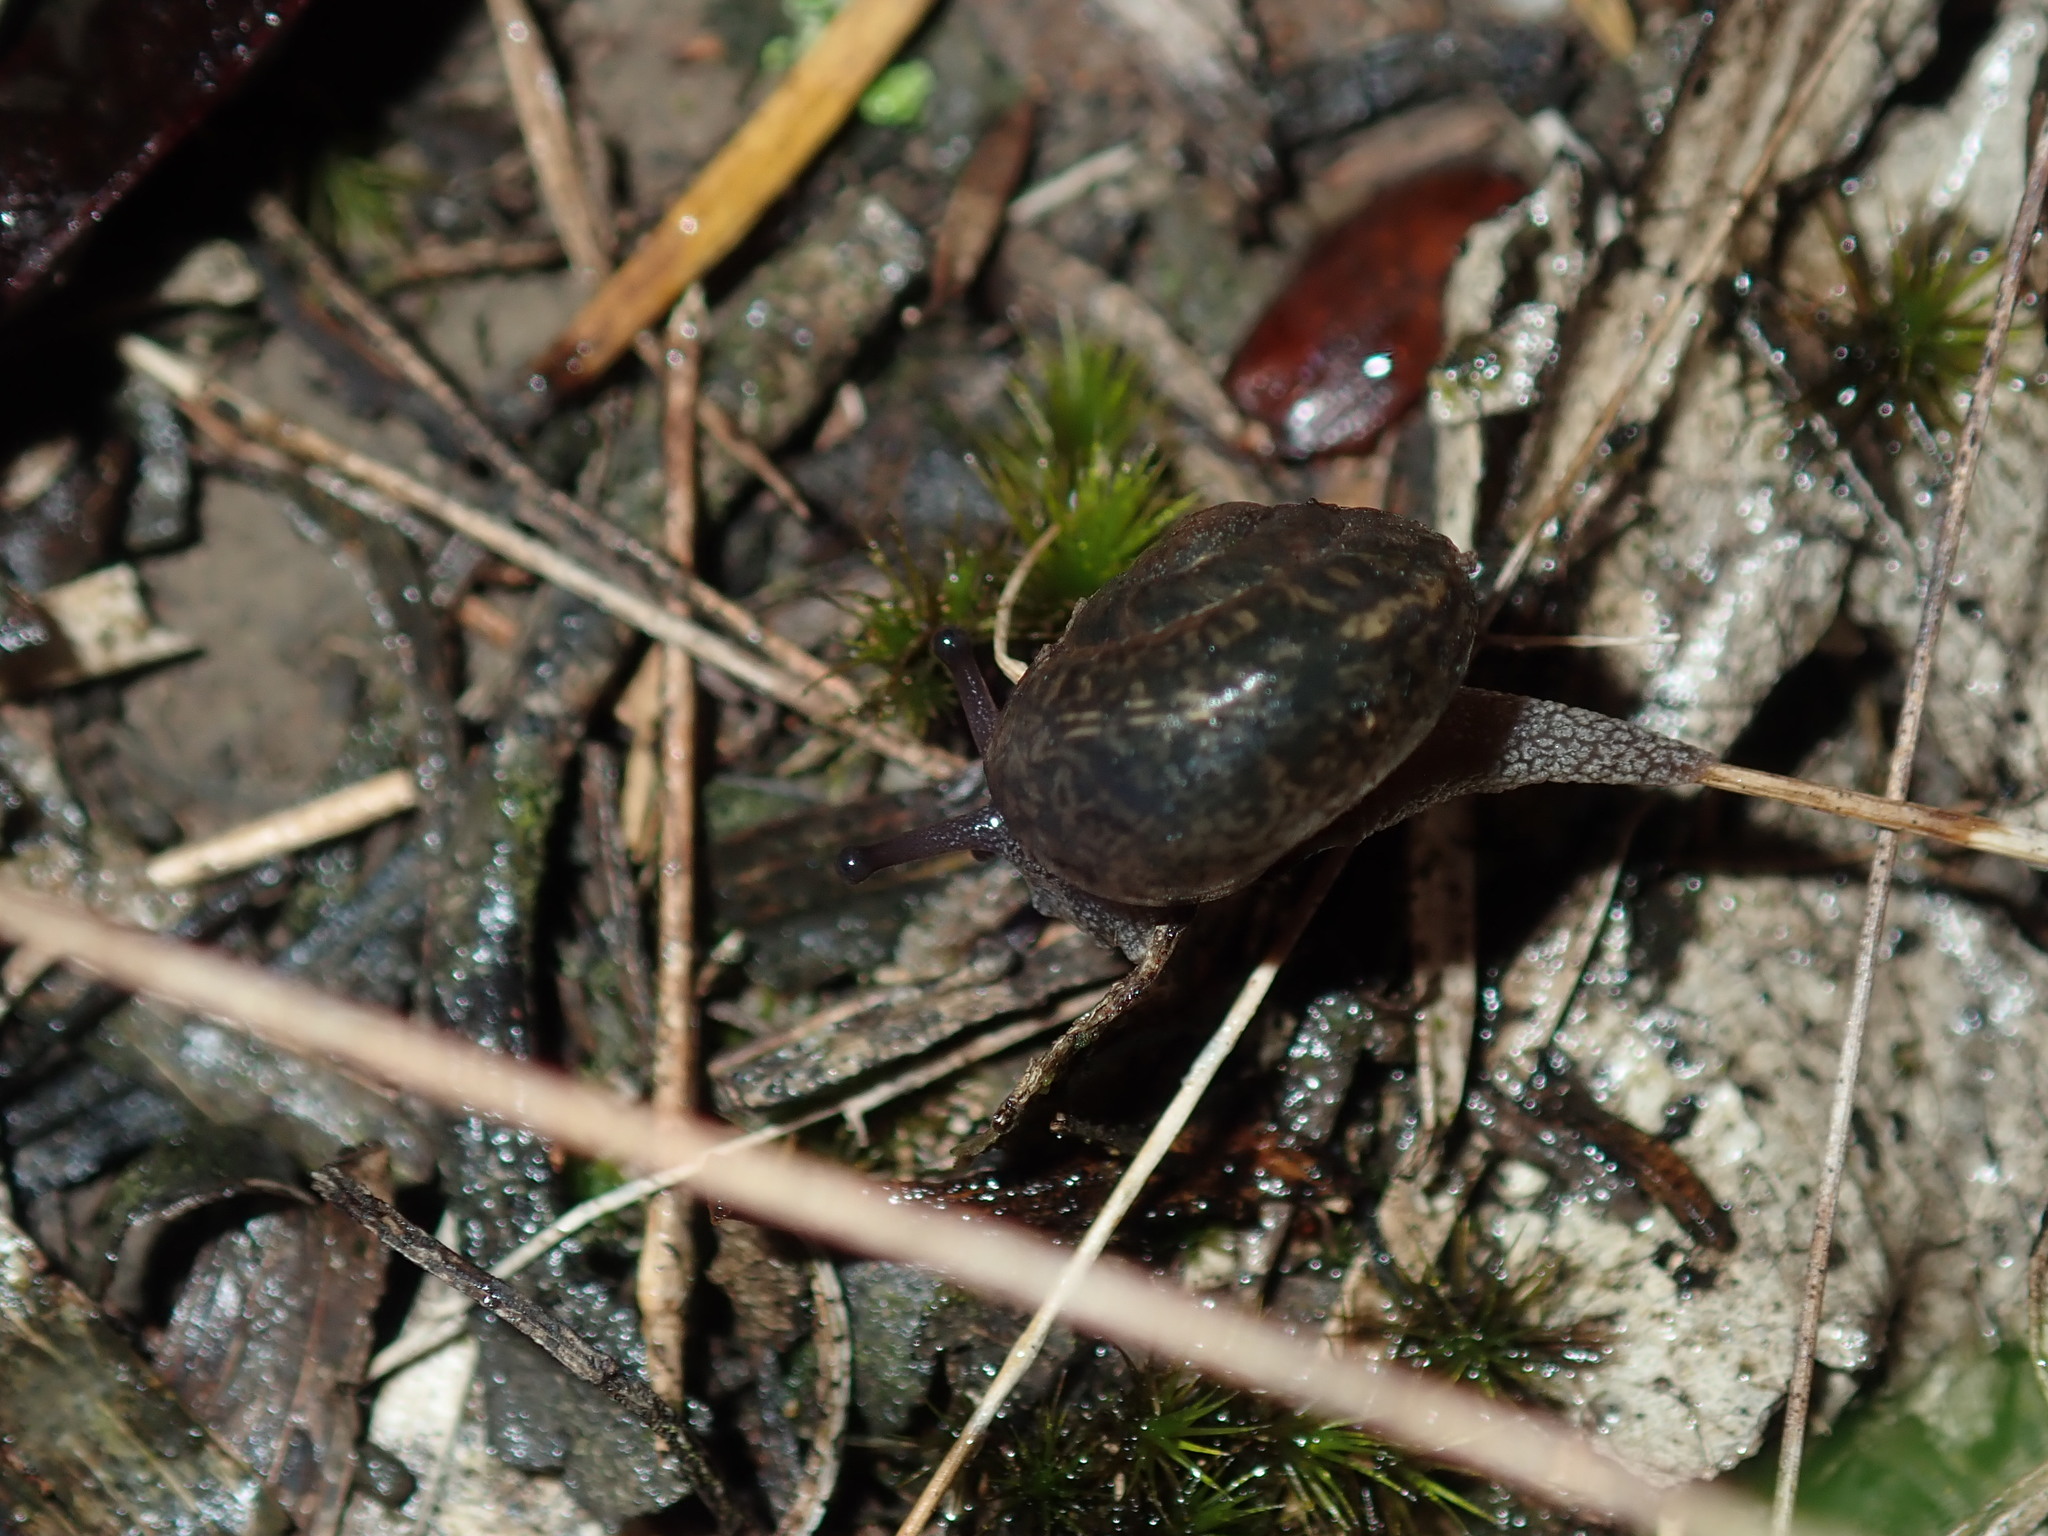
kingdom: Animalia
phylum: Mollusca
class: Gastropoda
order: Stylommatophora
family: Camaenidae
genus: Sauroconcha
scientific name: Sauroconcha sheai
